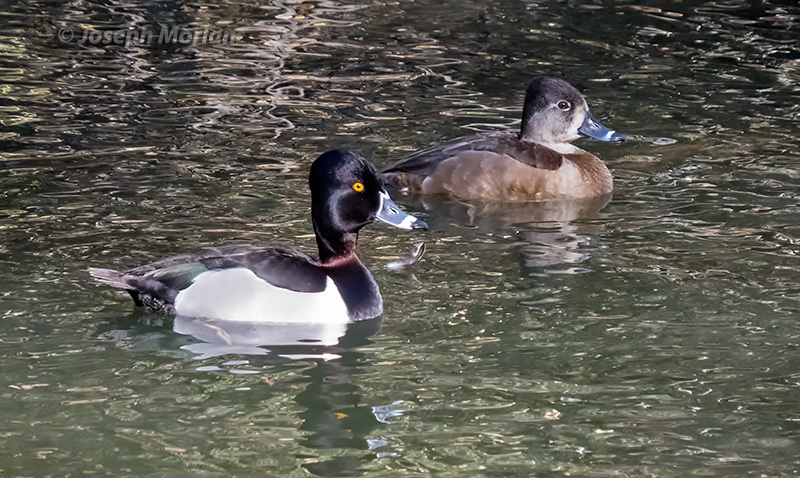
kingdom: Animalia
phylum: Chordata
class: Aves
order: Anseriformes
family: Anatidae
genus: Aythya
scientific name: Aythya collaris
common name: Ring-necked duck
